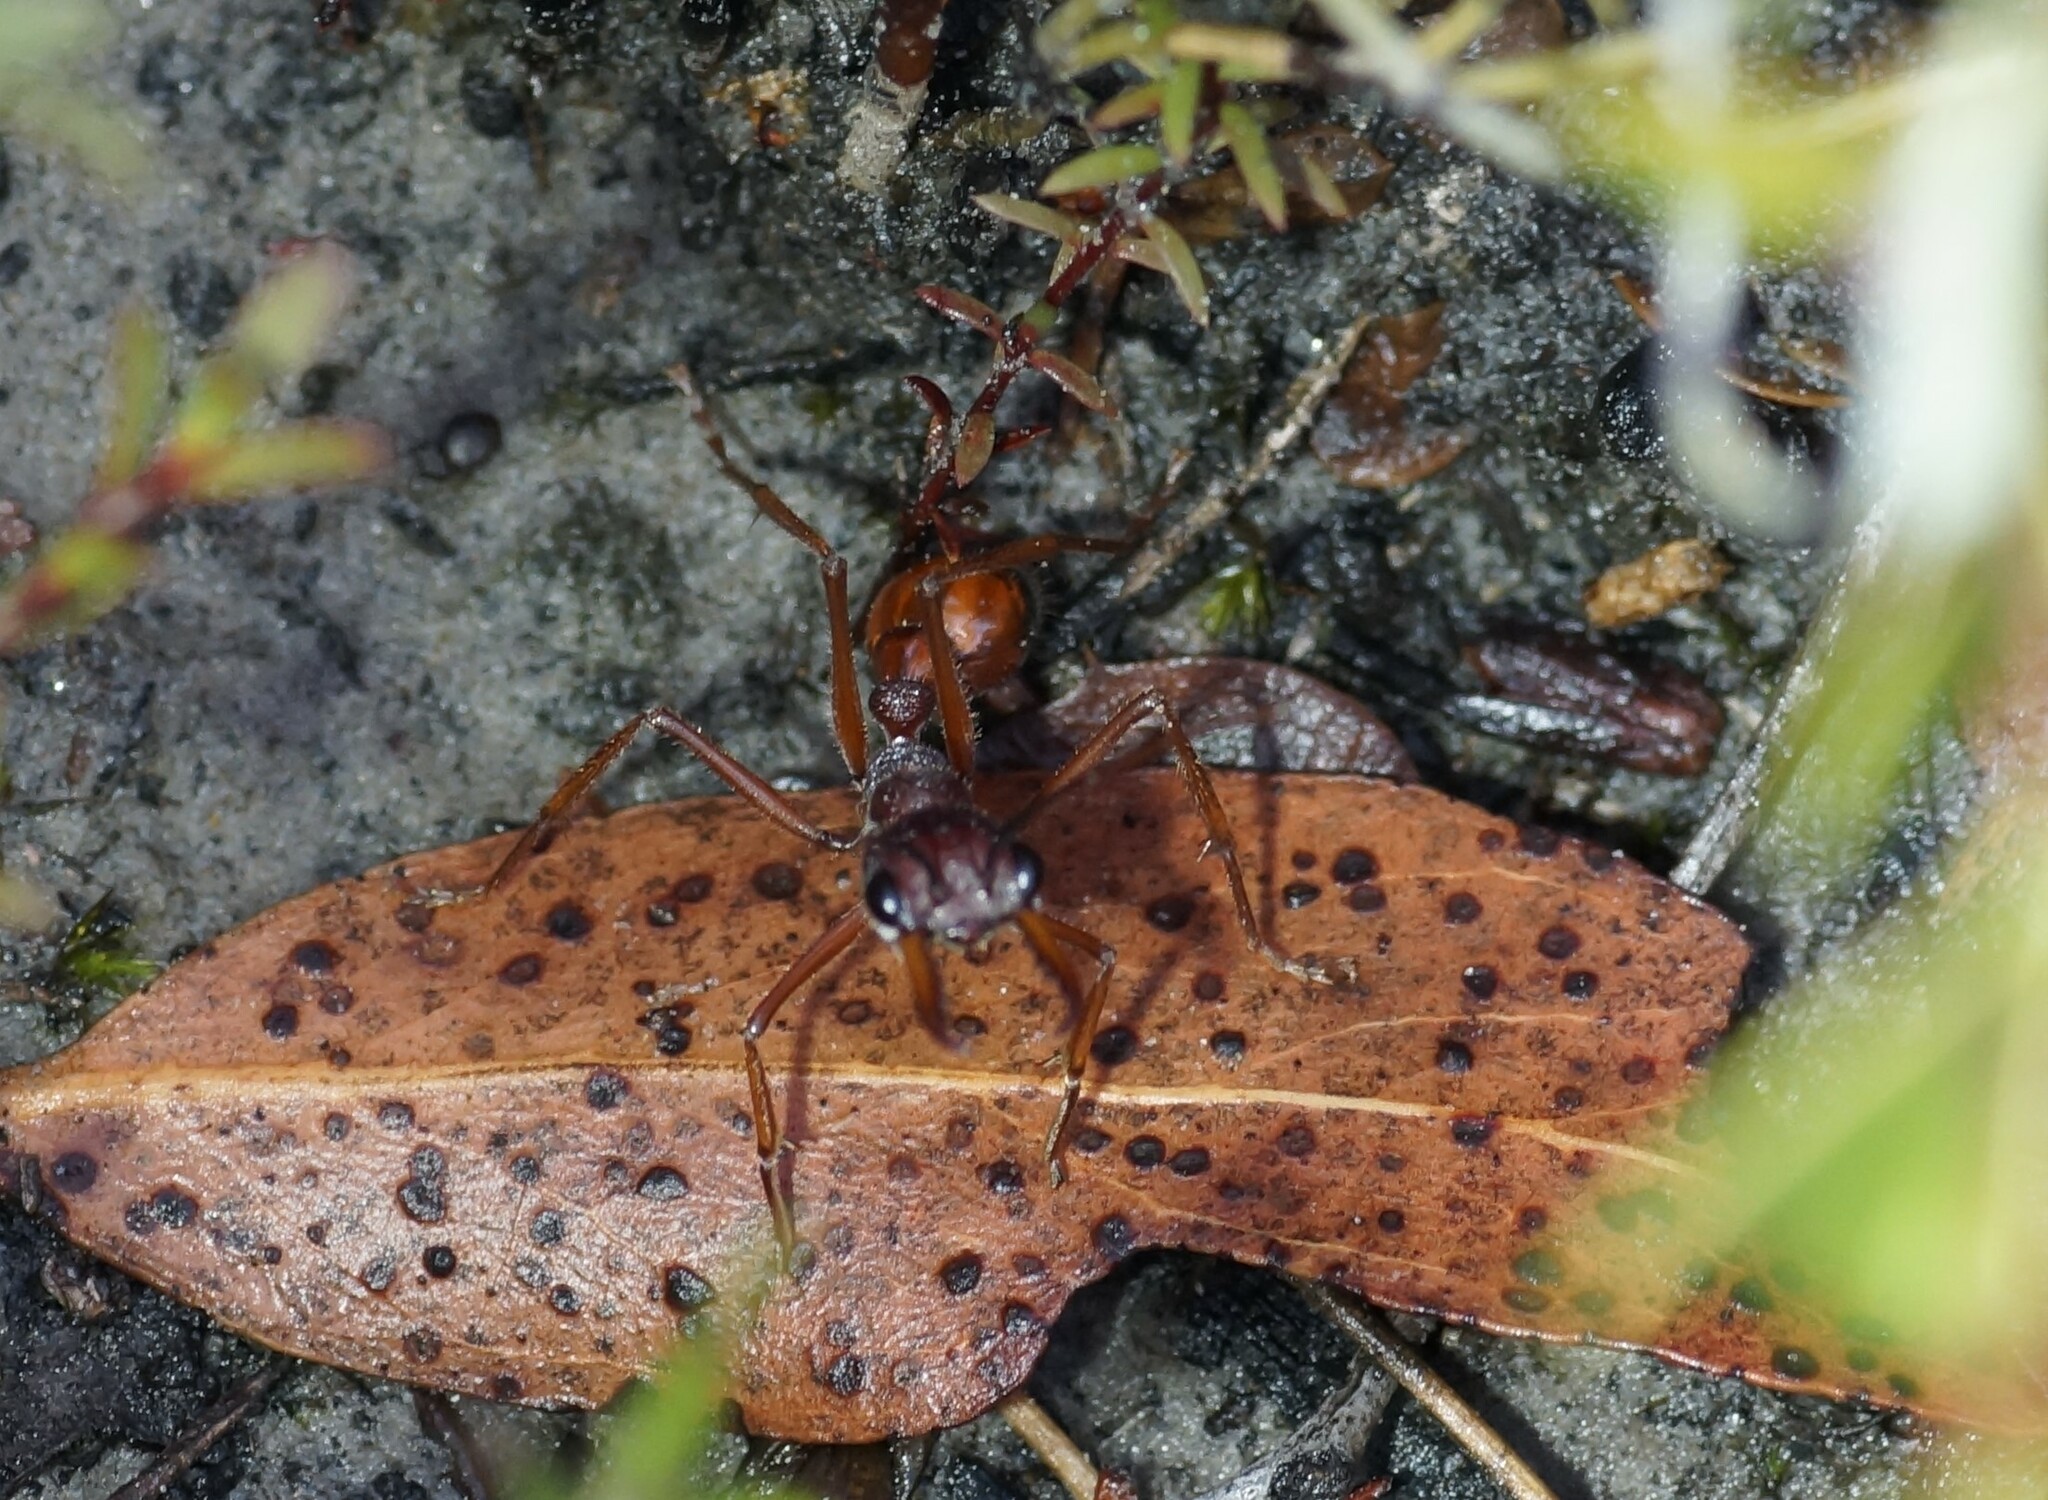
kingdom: Animalia
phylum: Arthropoda
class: Insecta
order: Hymenoptera
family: Formicidae
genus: Myrmecia
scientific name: Myrmecia nigriscapa
